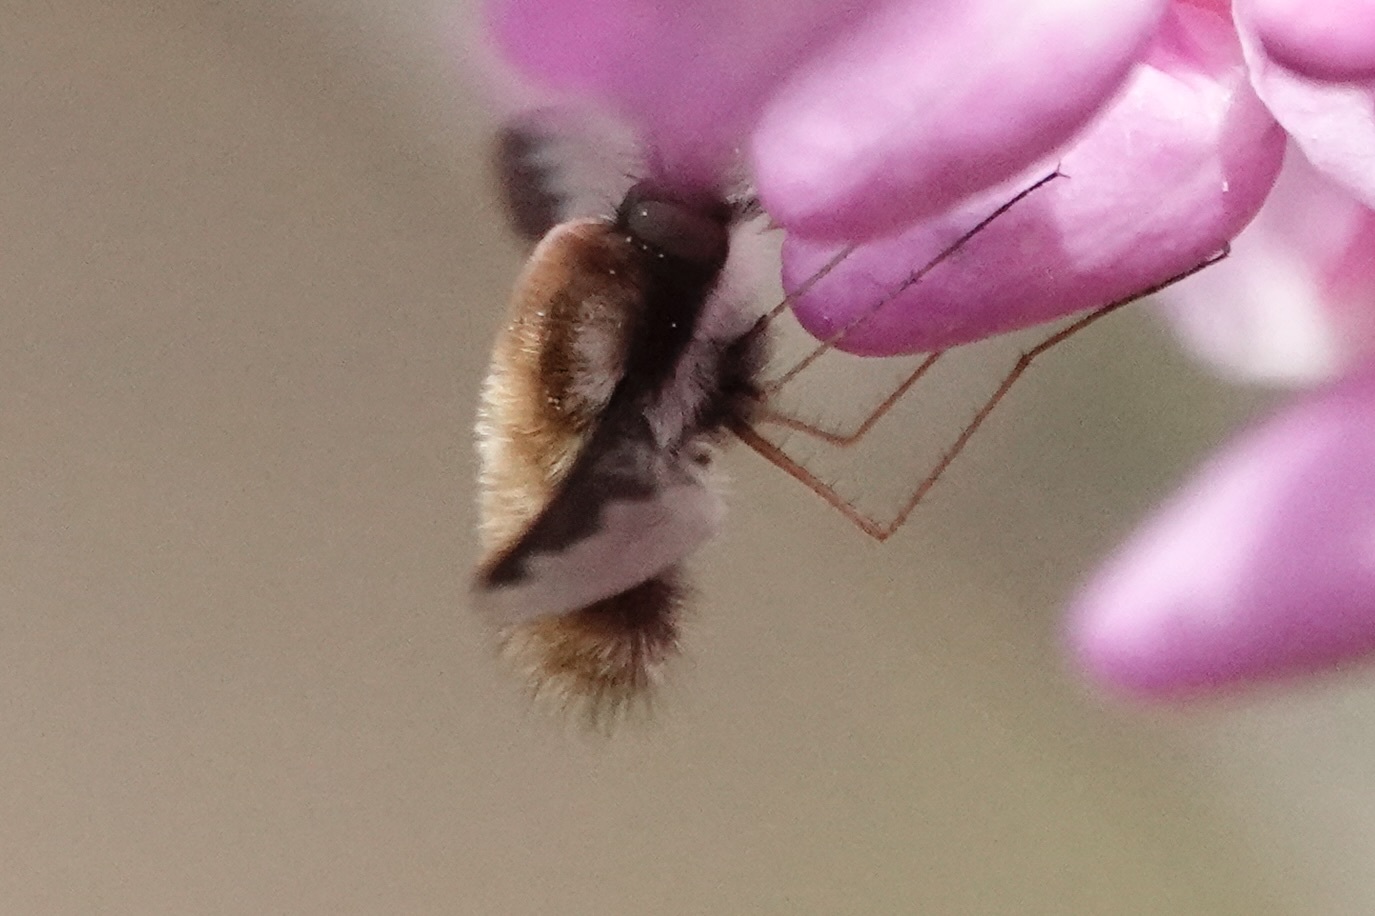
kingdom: Animalia
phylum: Arthropoda
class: Insecta
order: Diptera
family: Bombyliidae
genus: Bombylius
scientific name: Bombylius major
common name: Bee fly
